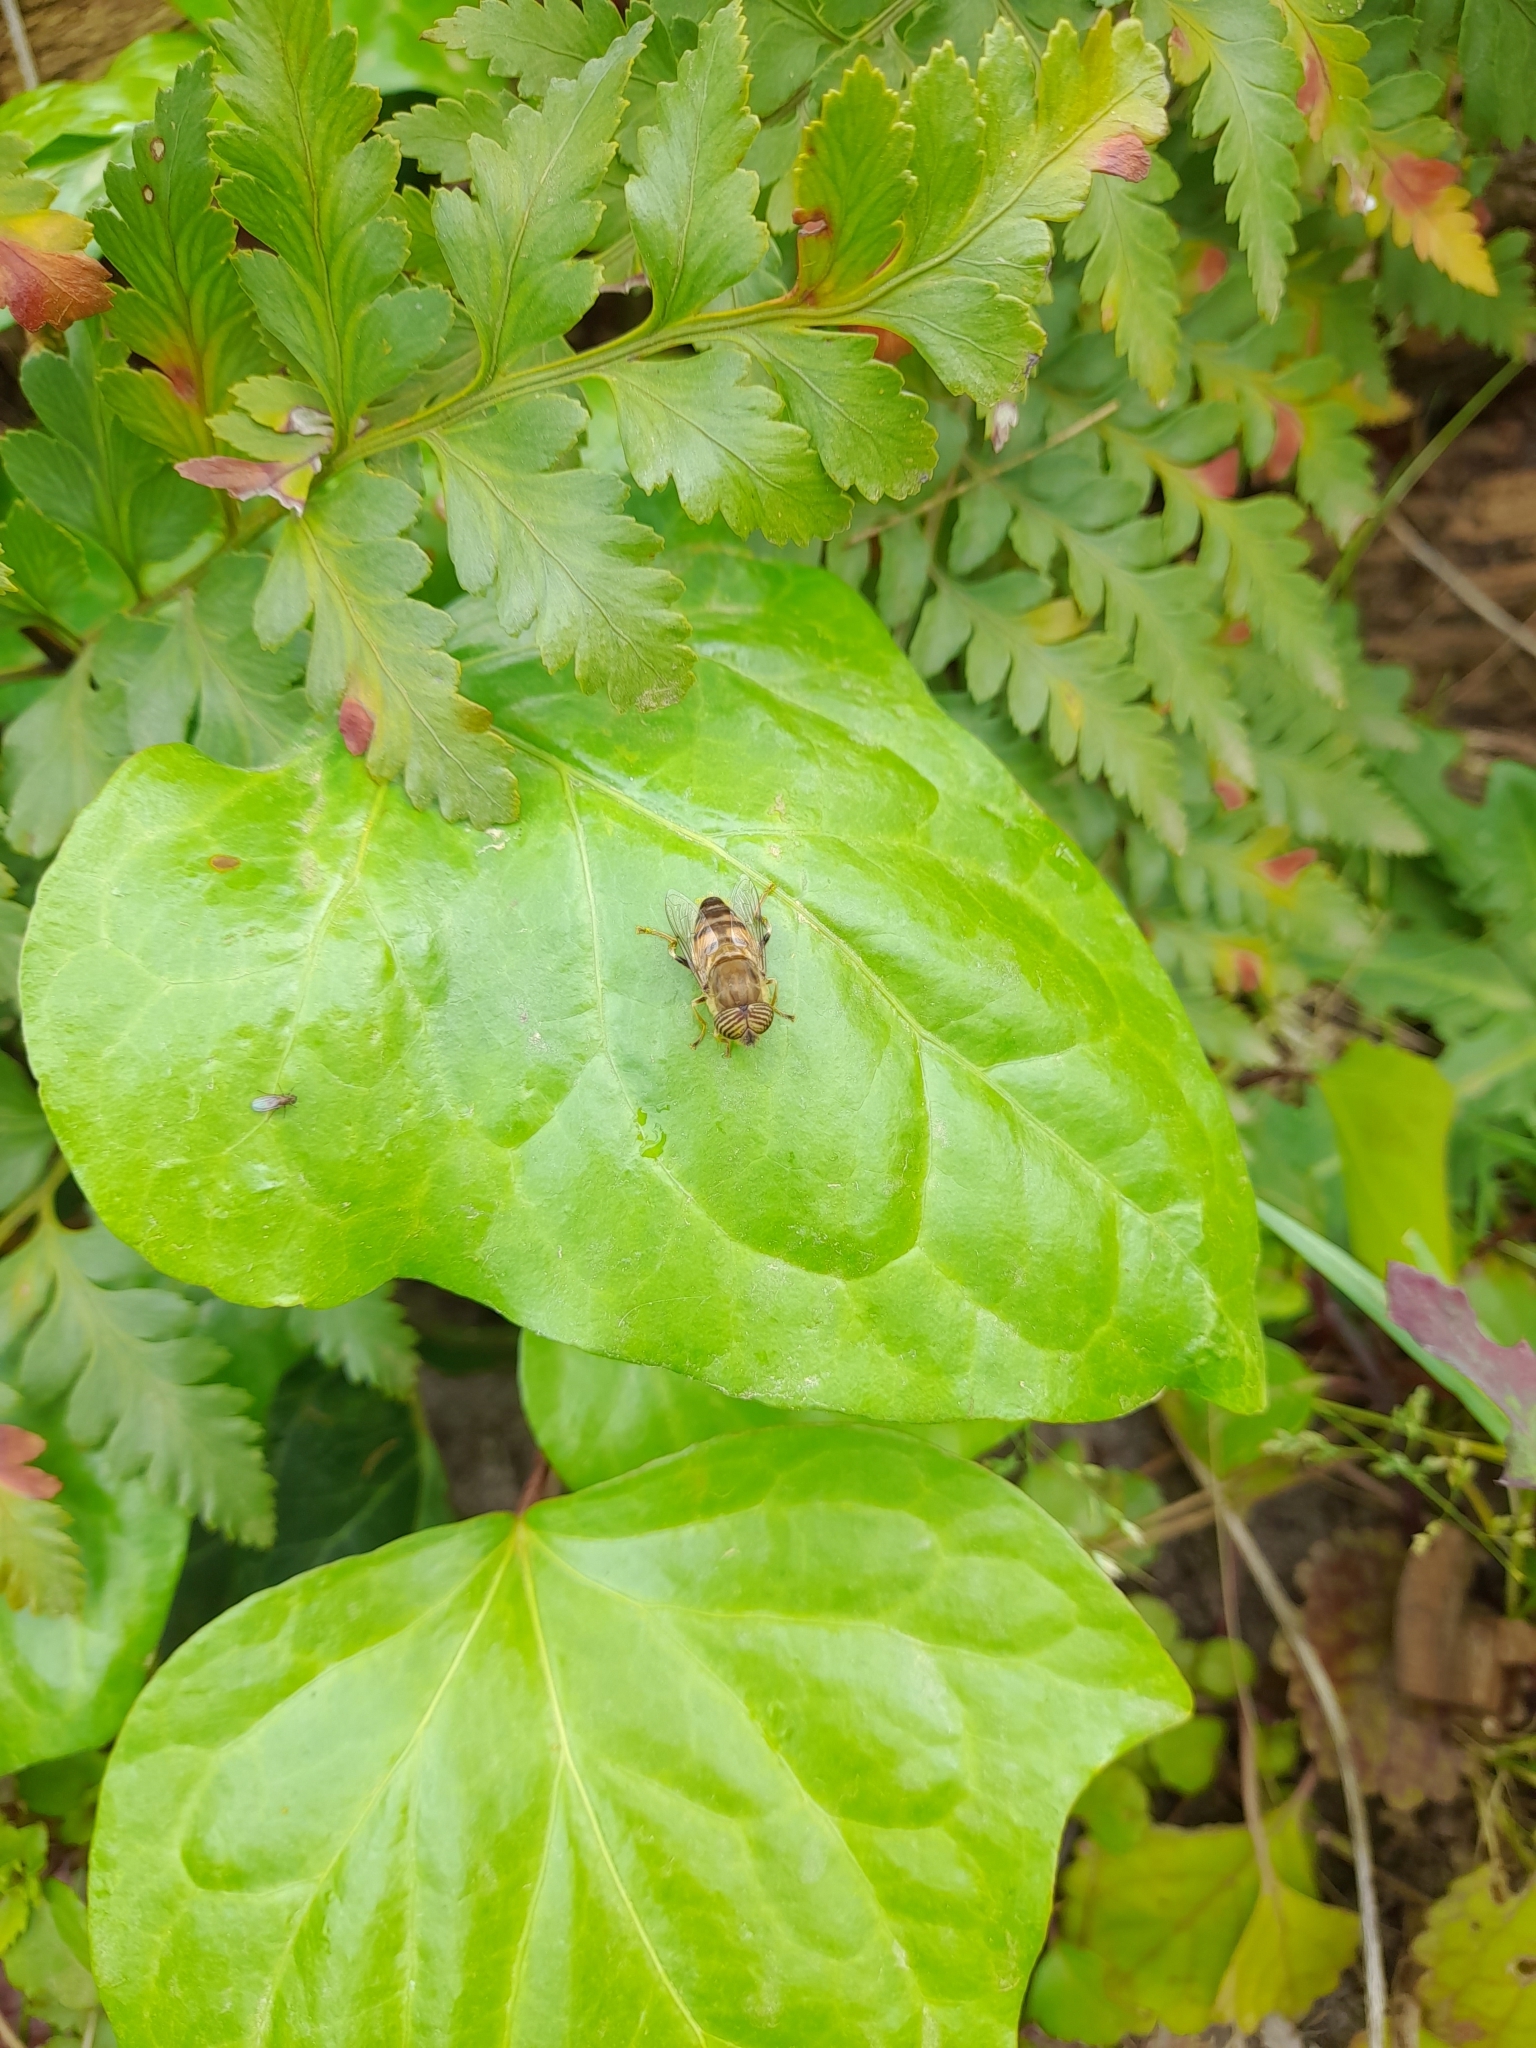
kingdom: Animalia
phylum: Arthropoda
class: Insecta
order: Diptera
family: Syrphidae
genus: Eristalinus
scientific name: Eristalinus taeniops
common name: Syrphid fly
